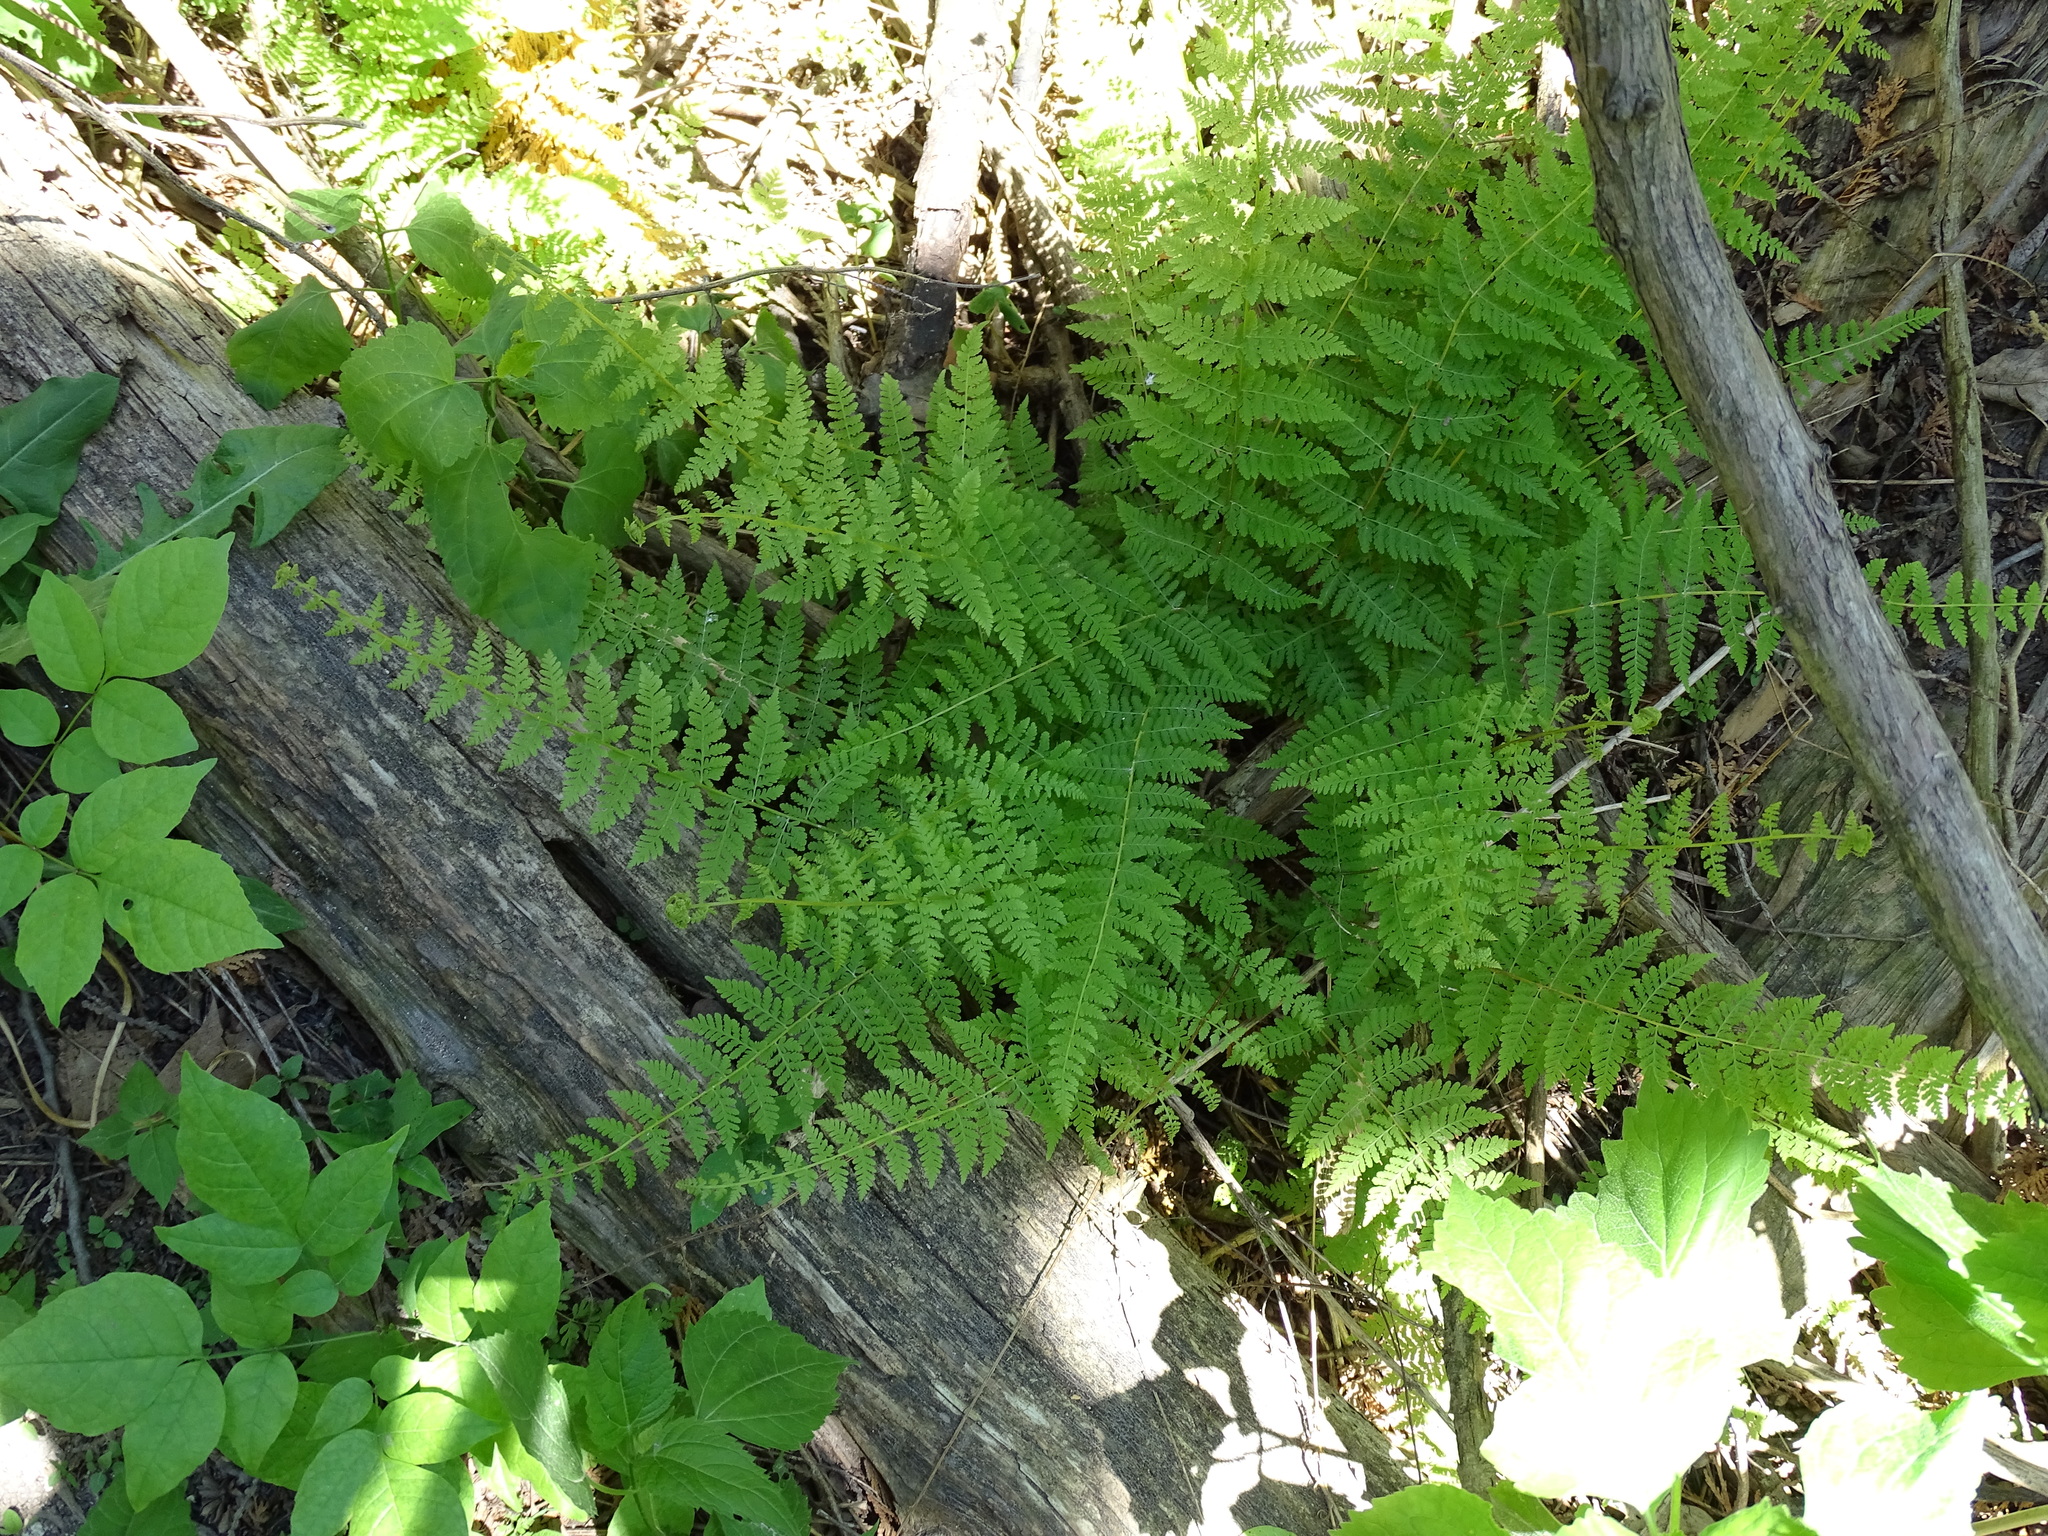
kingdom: Plantae
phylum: Tracheophyta
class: Polypodiopsida
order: Polypodiales
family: Cystopteridaceae
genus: Cystopteris
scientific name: Cystopteris bulbifera
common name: Bulblet bladder fern
